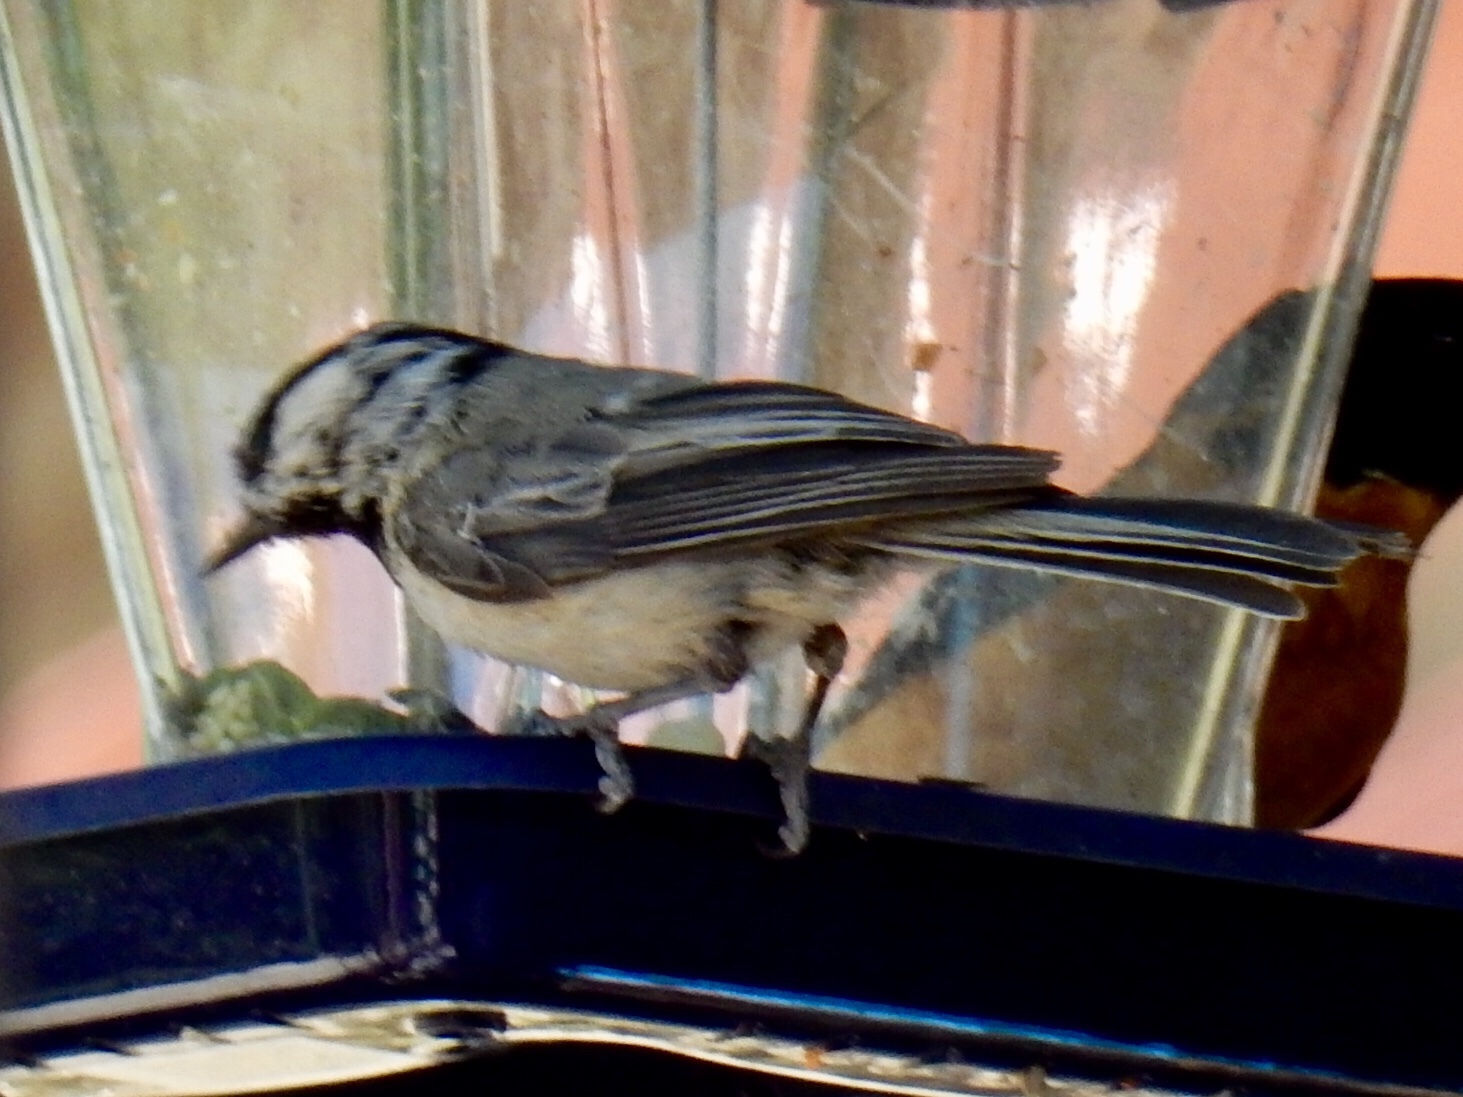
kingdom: Animalia
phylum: Chordata
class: Aves
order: Passeriformes
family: Paridae
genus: Poecile
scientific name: Poecile gambeli
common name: Mountain chickadee
